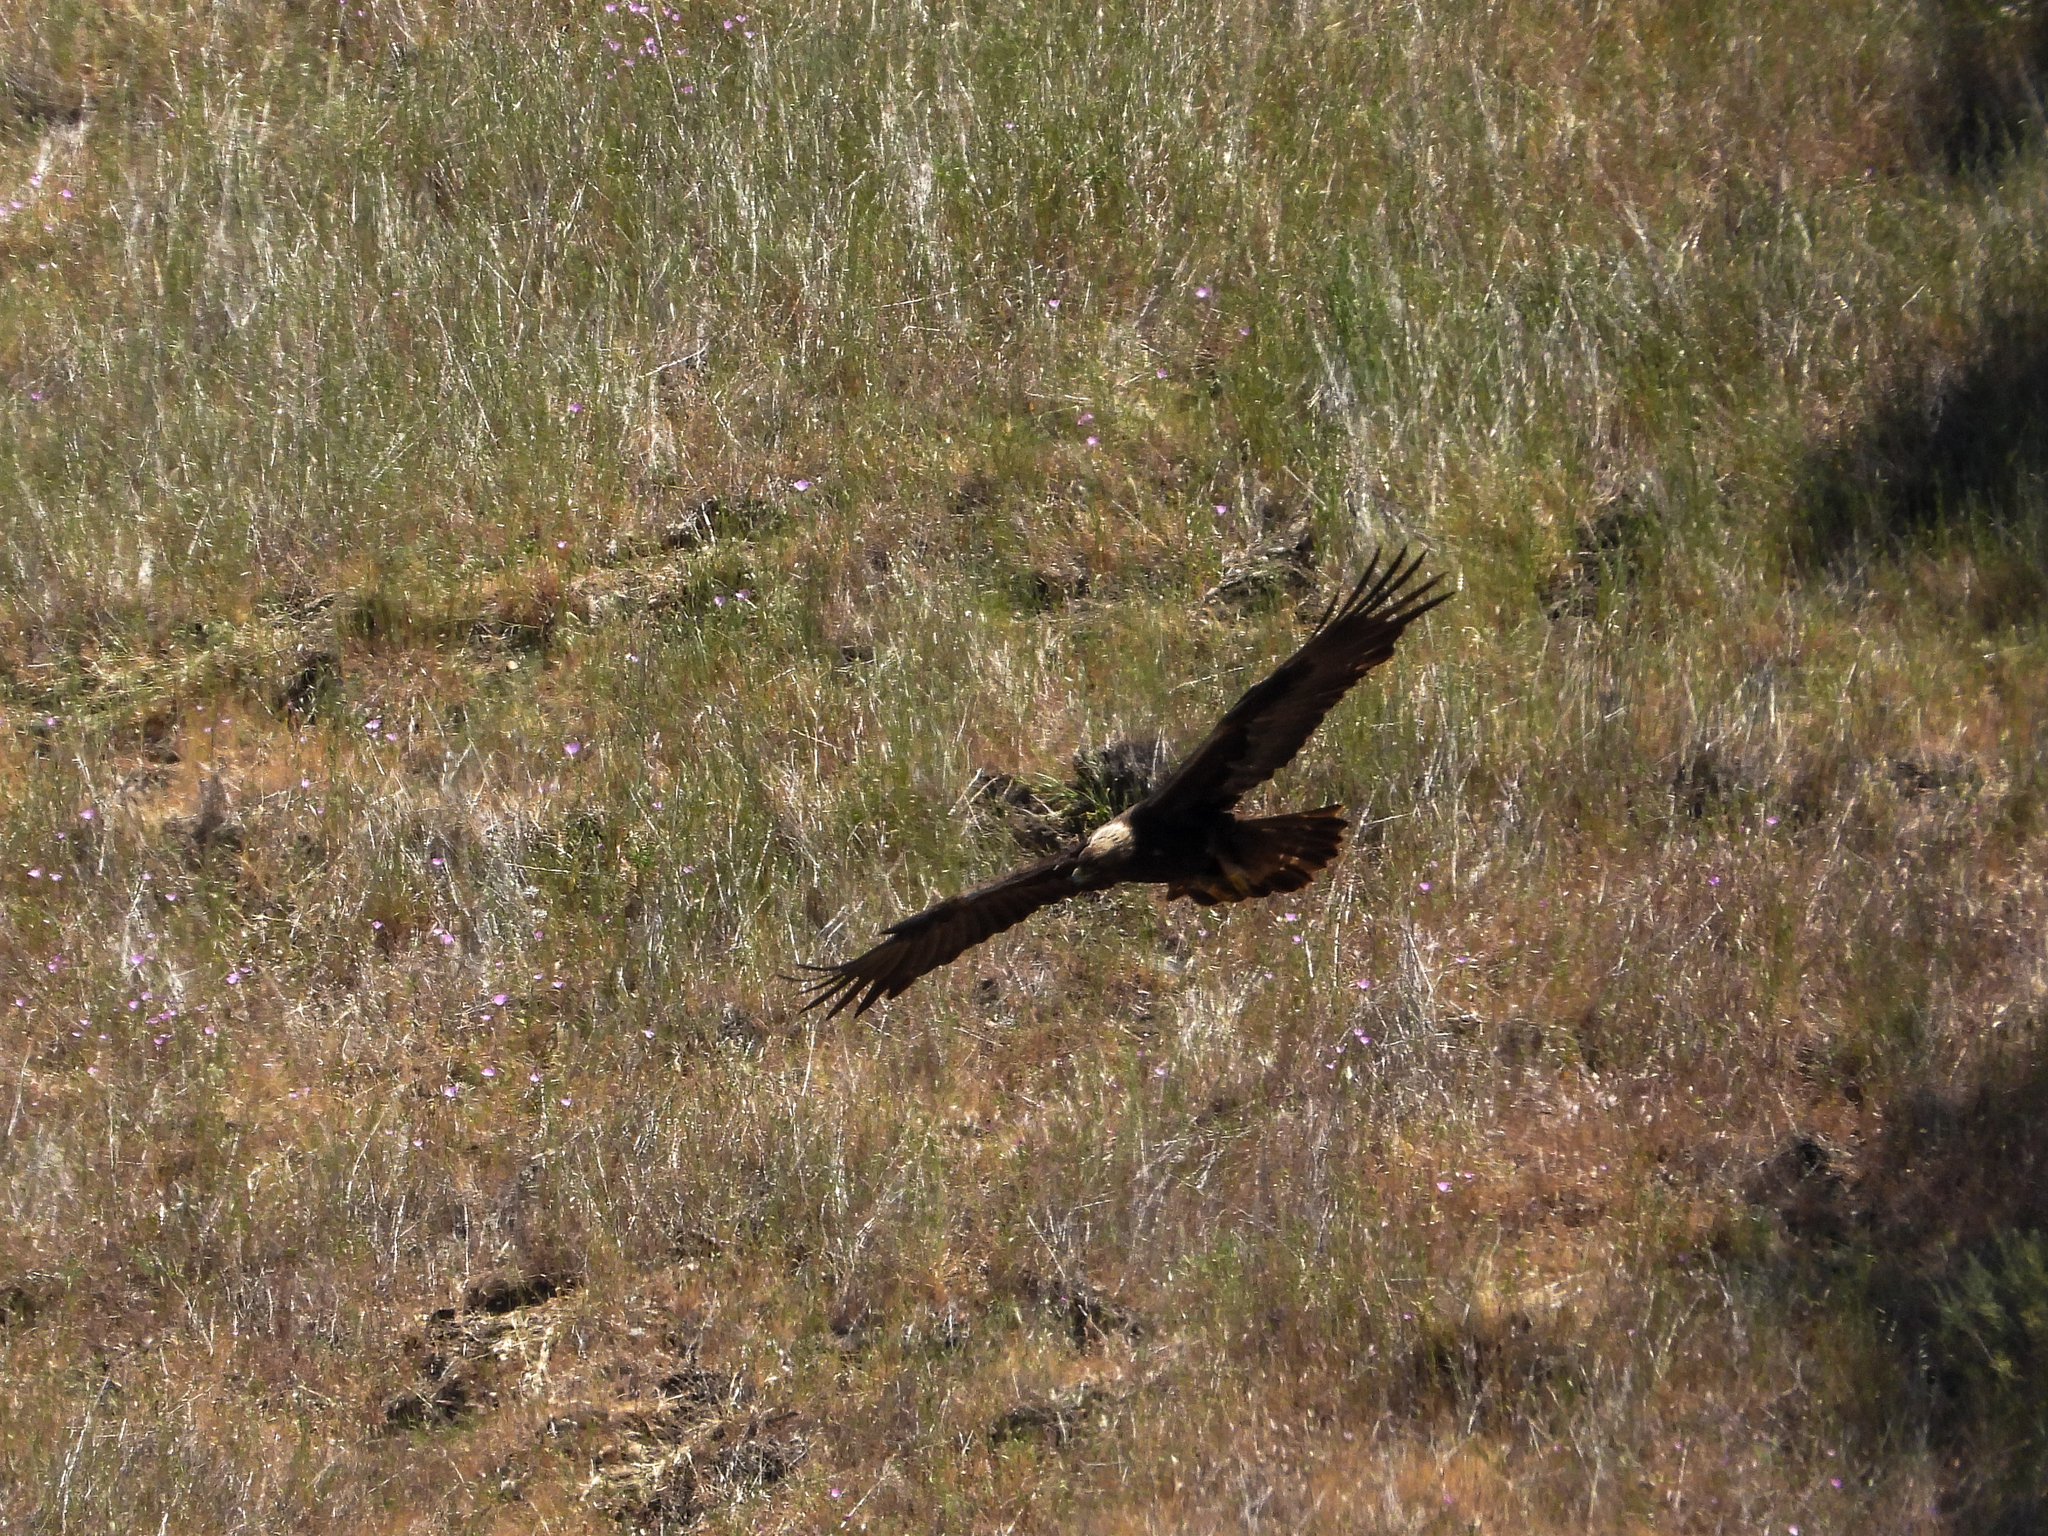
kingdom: Animalia
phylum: Chordata
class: Aves
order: Accipitriformes
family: Accipitridae
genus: Aquila
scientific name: Aquila chrysaetos
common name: Golden eagle
